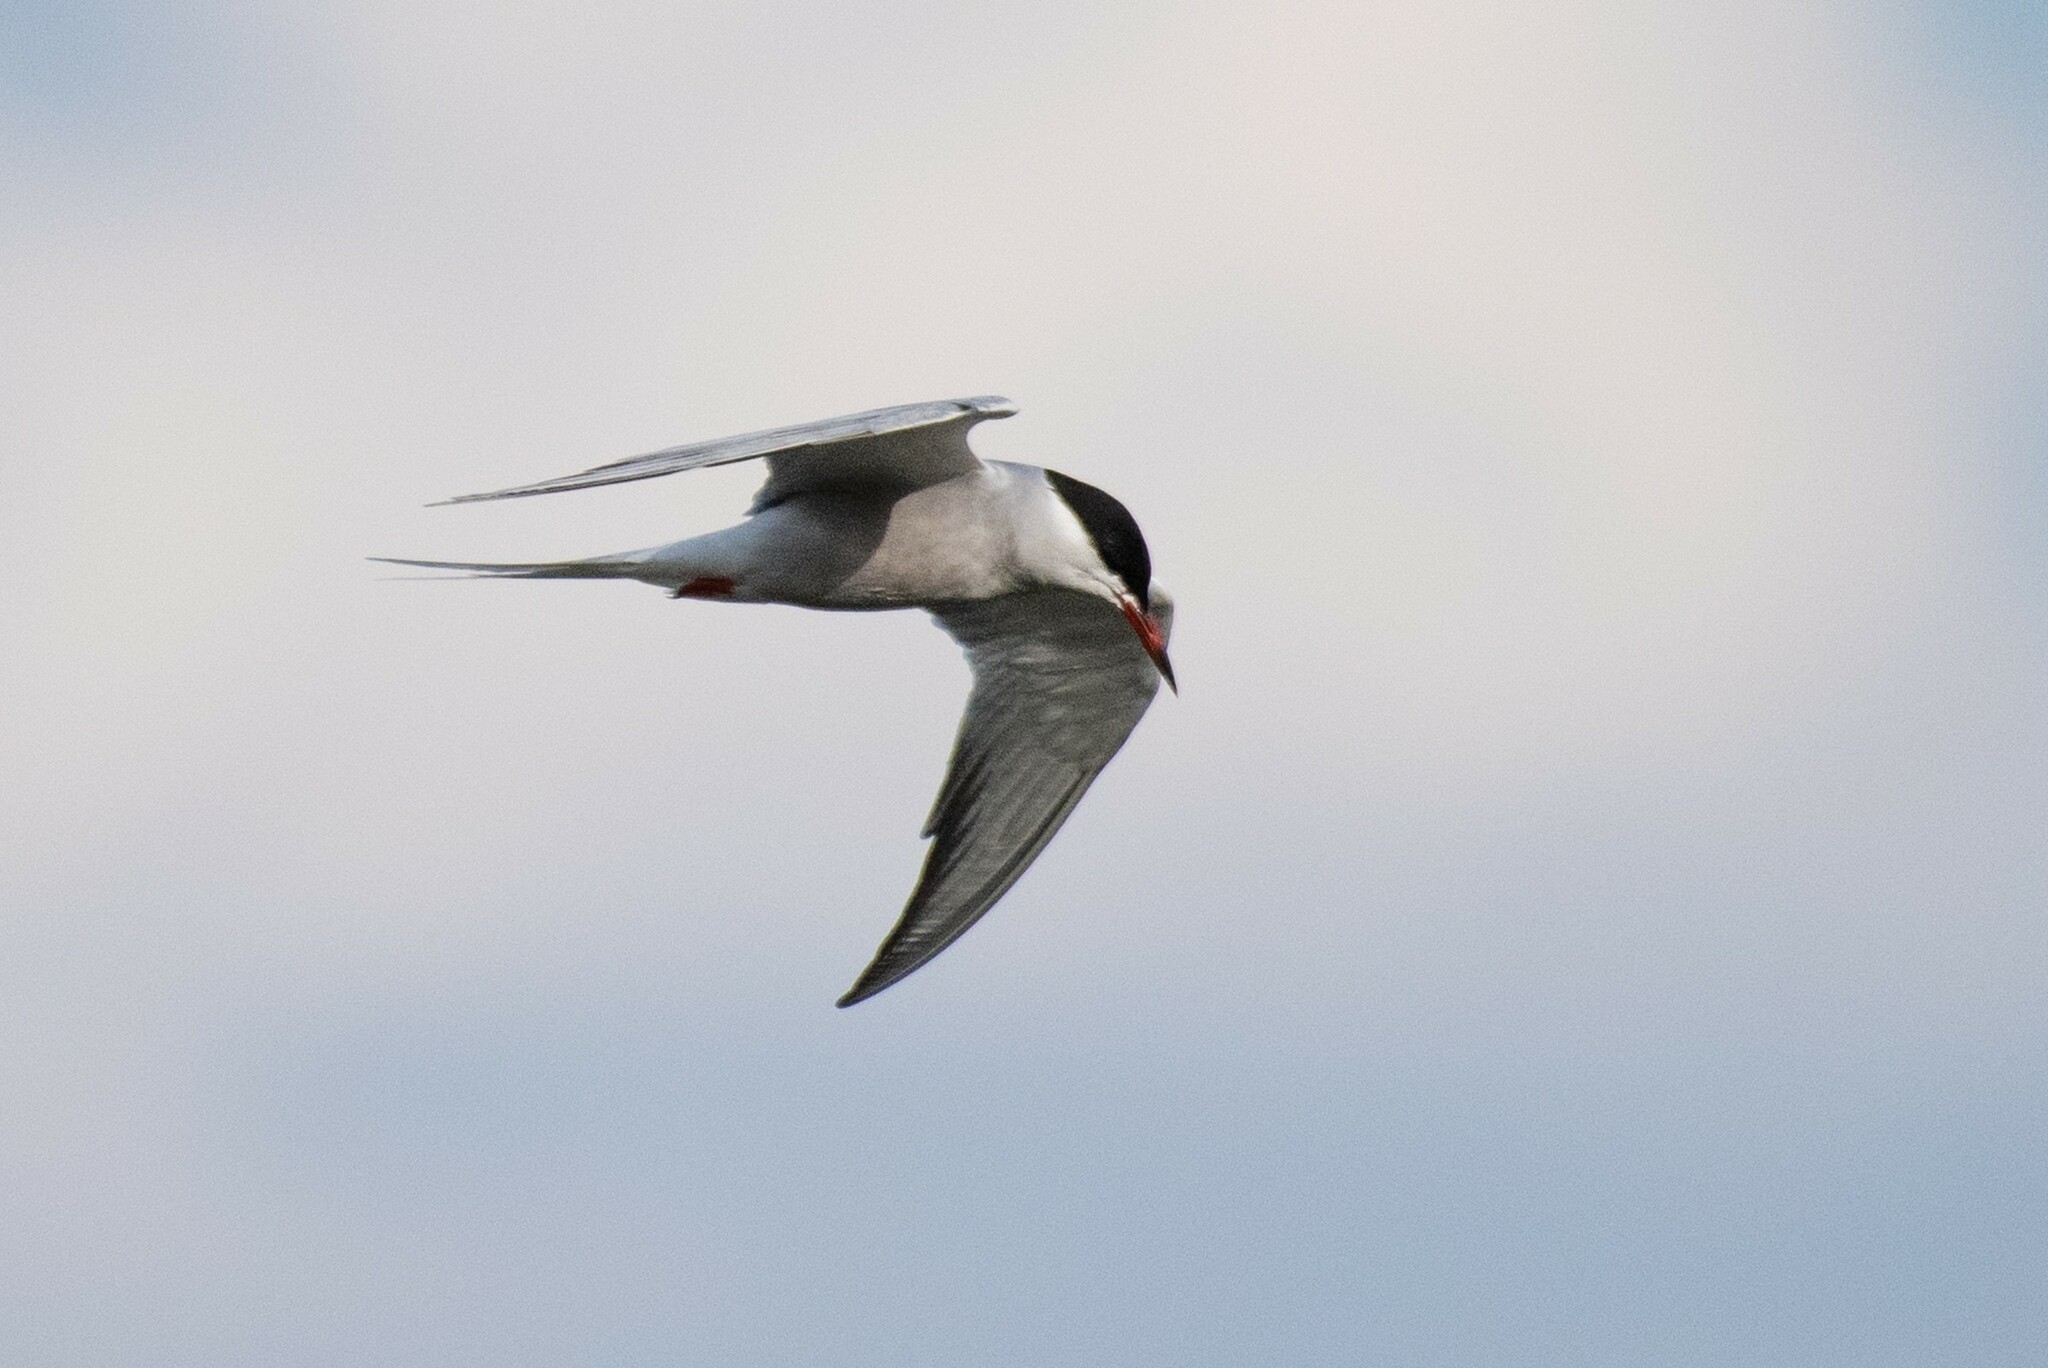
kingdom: Animalia
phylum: Chordata
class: Aves
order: Charadriiformes
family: Laridae
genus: Sterna
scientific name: Sterna hirundo
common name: Common tern
